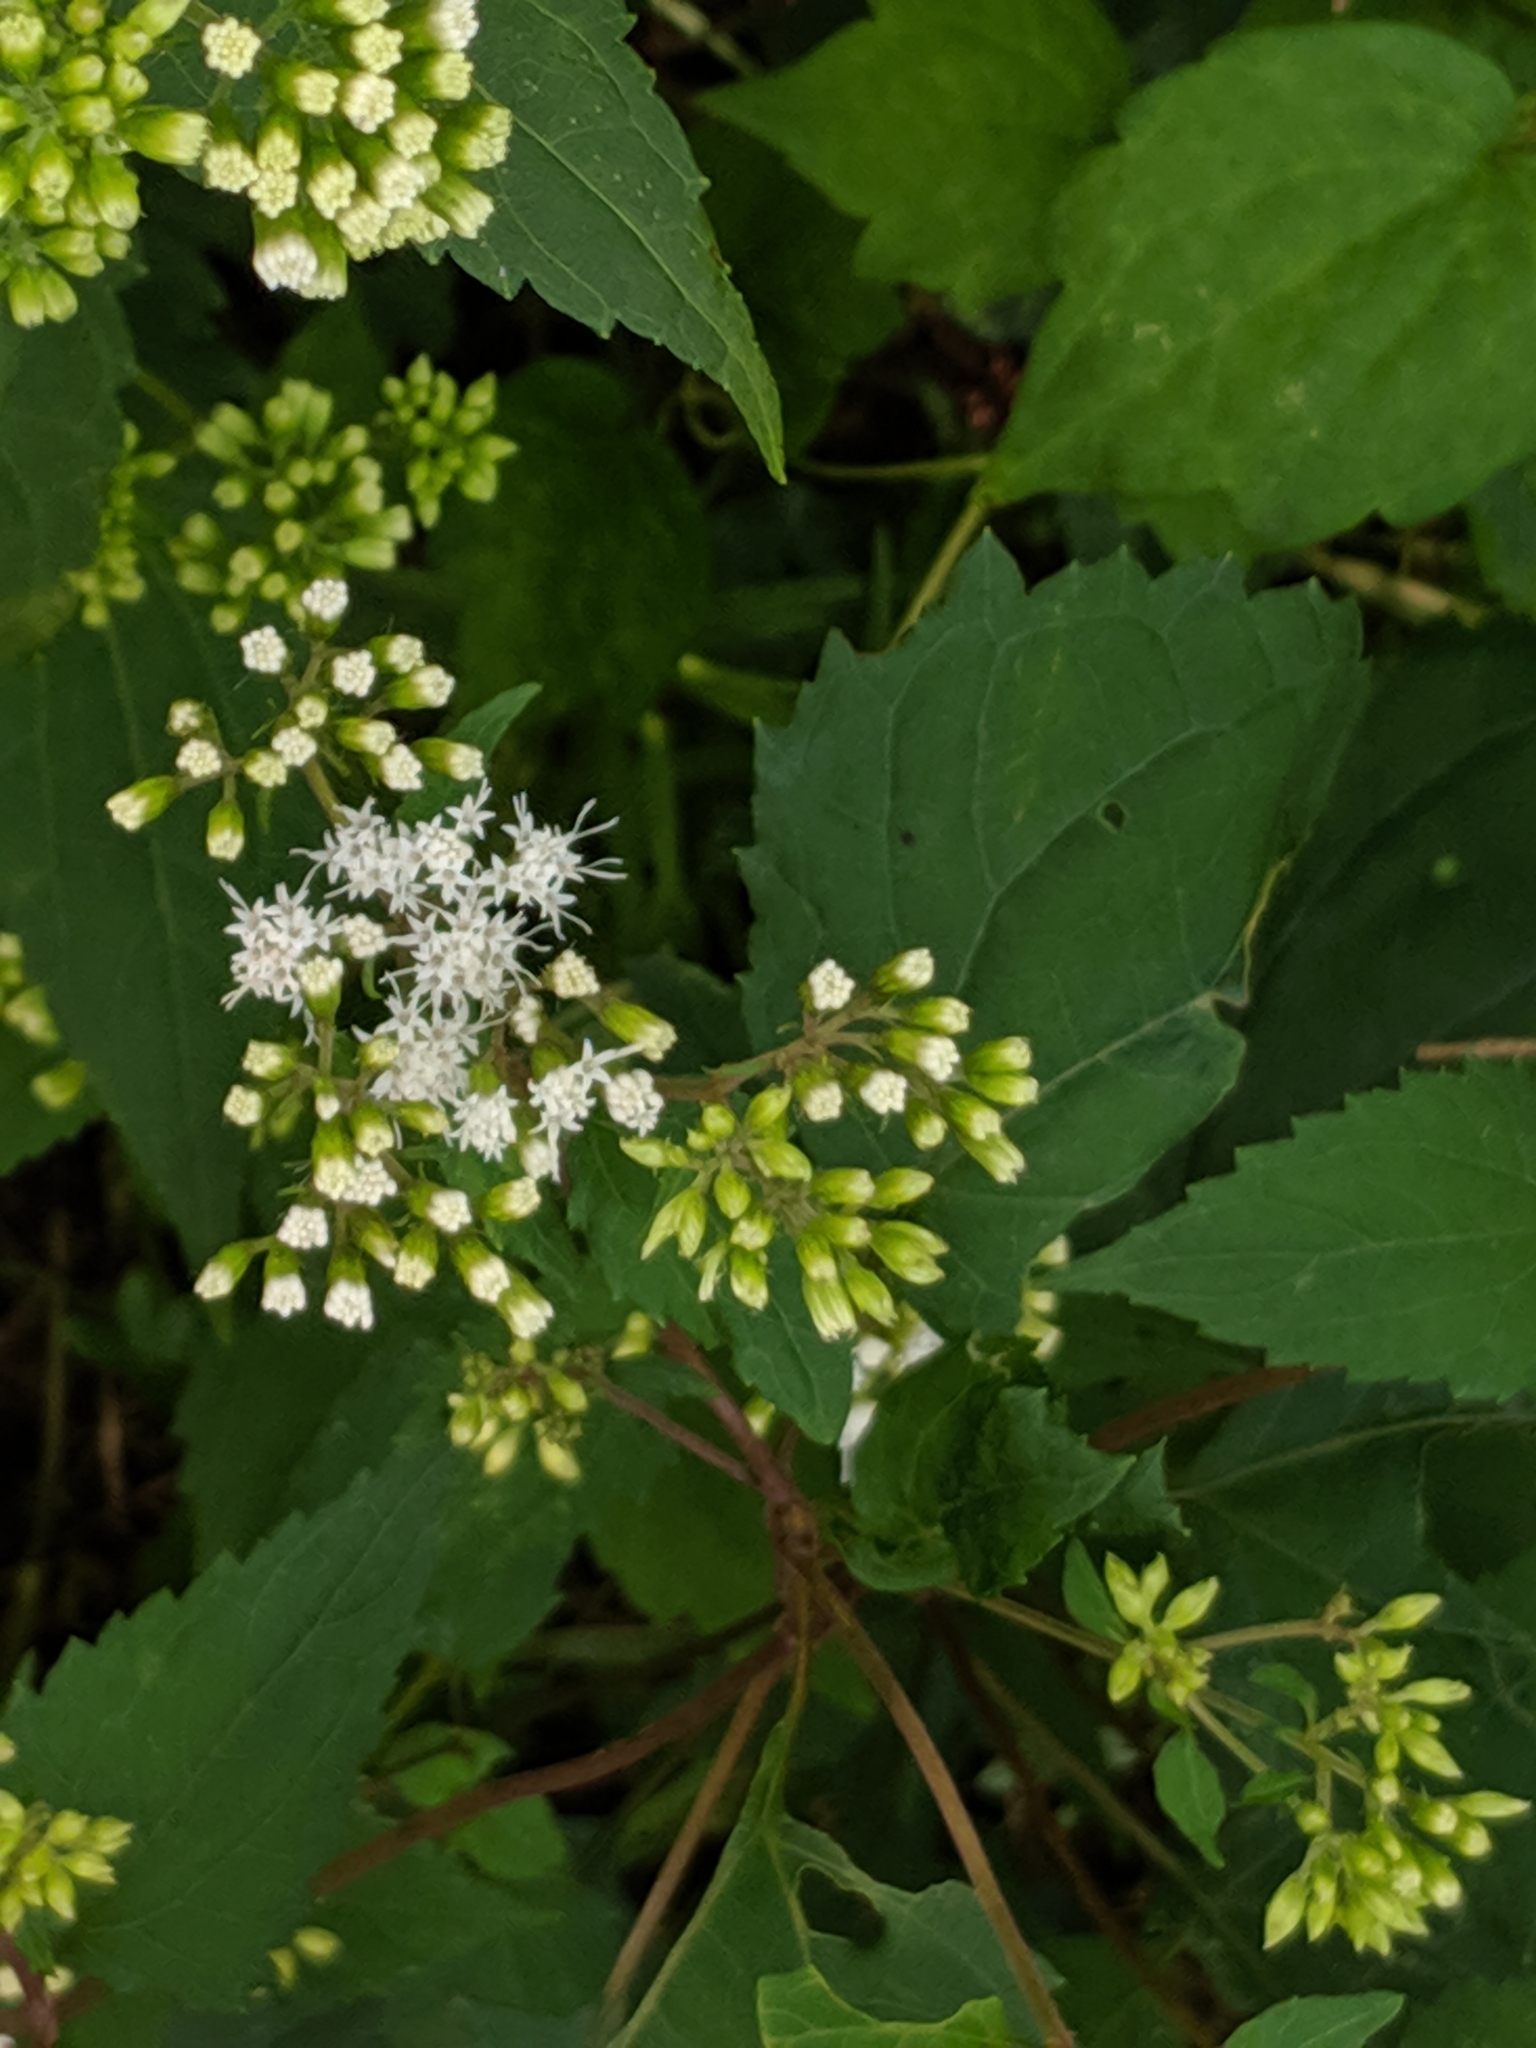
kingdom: Plantae
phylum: Tracheophyta
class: Magnoliopsida
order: Asterales
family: Asteraceae
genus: Ageratina
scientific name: Ageratina altissima
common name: White snakeroot
